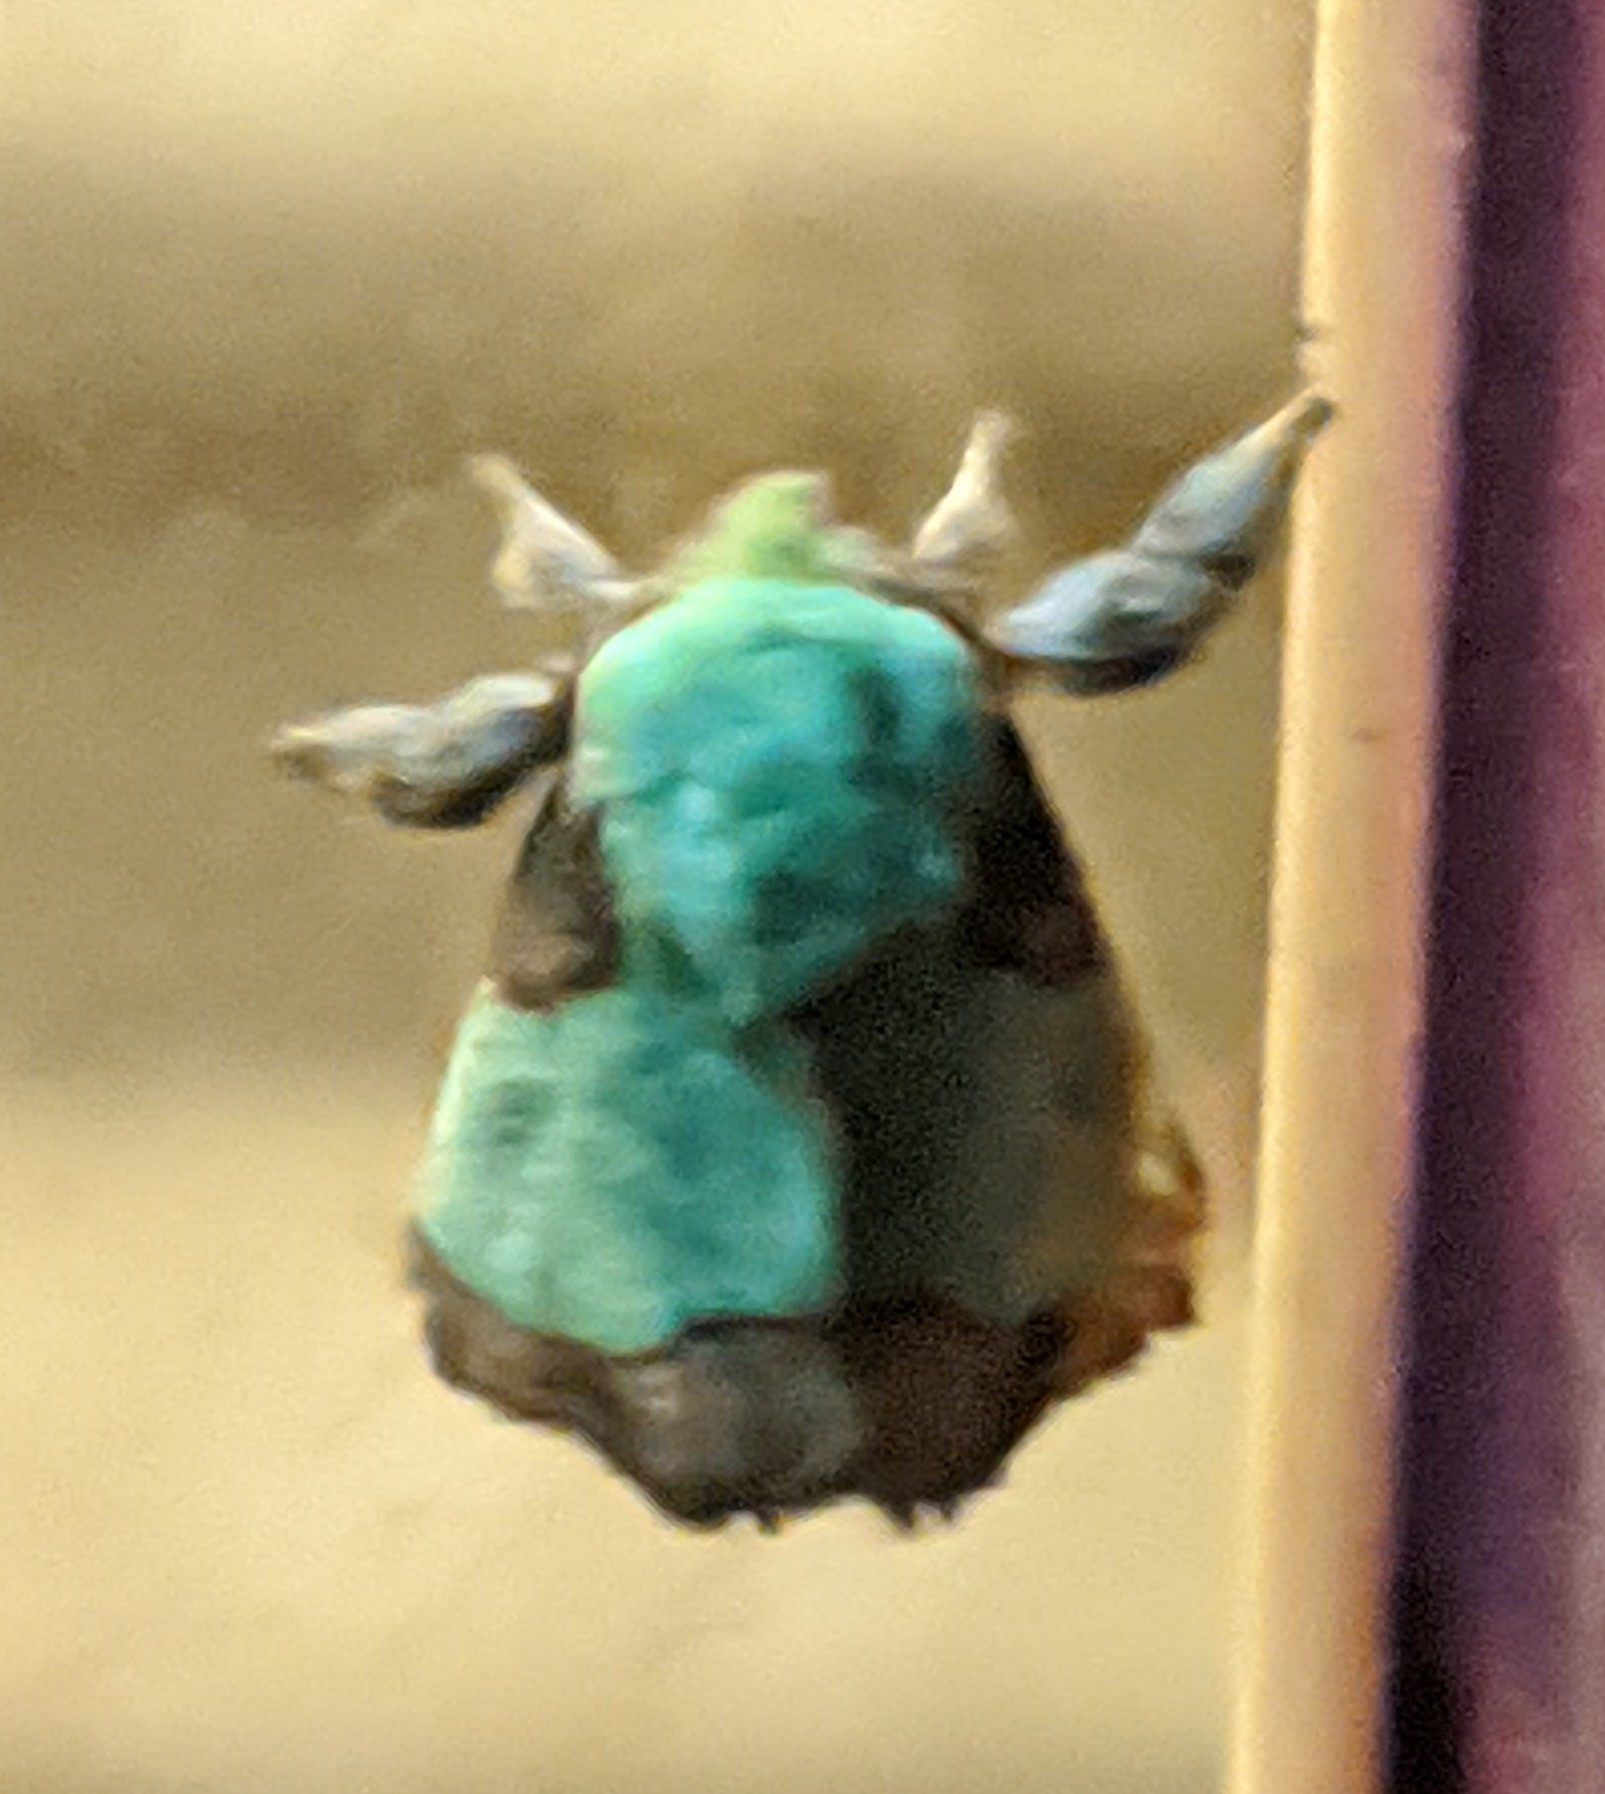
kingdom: Animalia
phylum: Arthropoda
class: Insecta
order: Lepidoptera
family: Limacodidae
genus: Parasa
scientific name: Parasa indetermina
